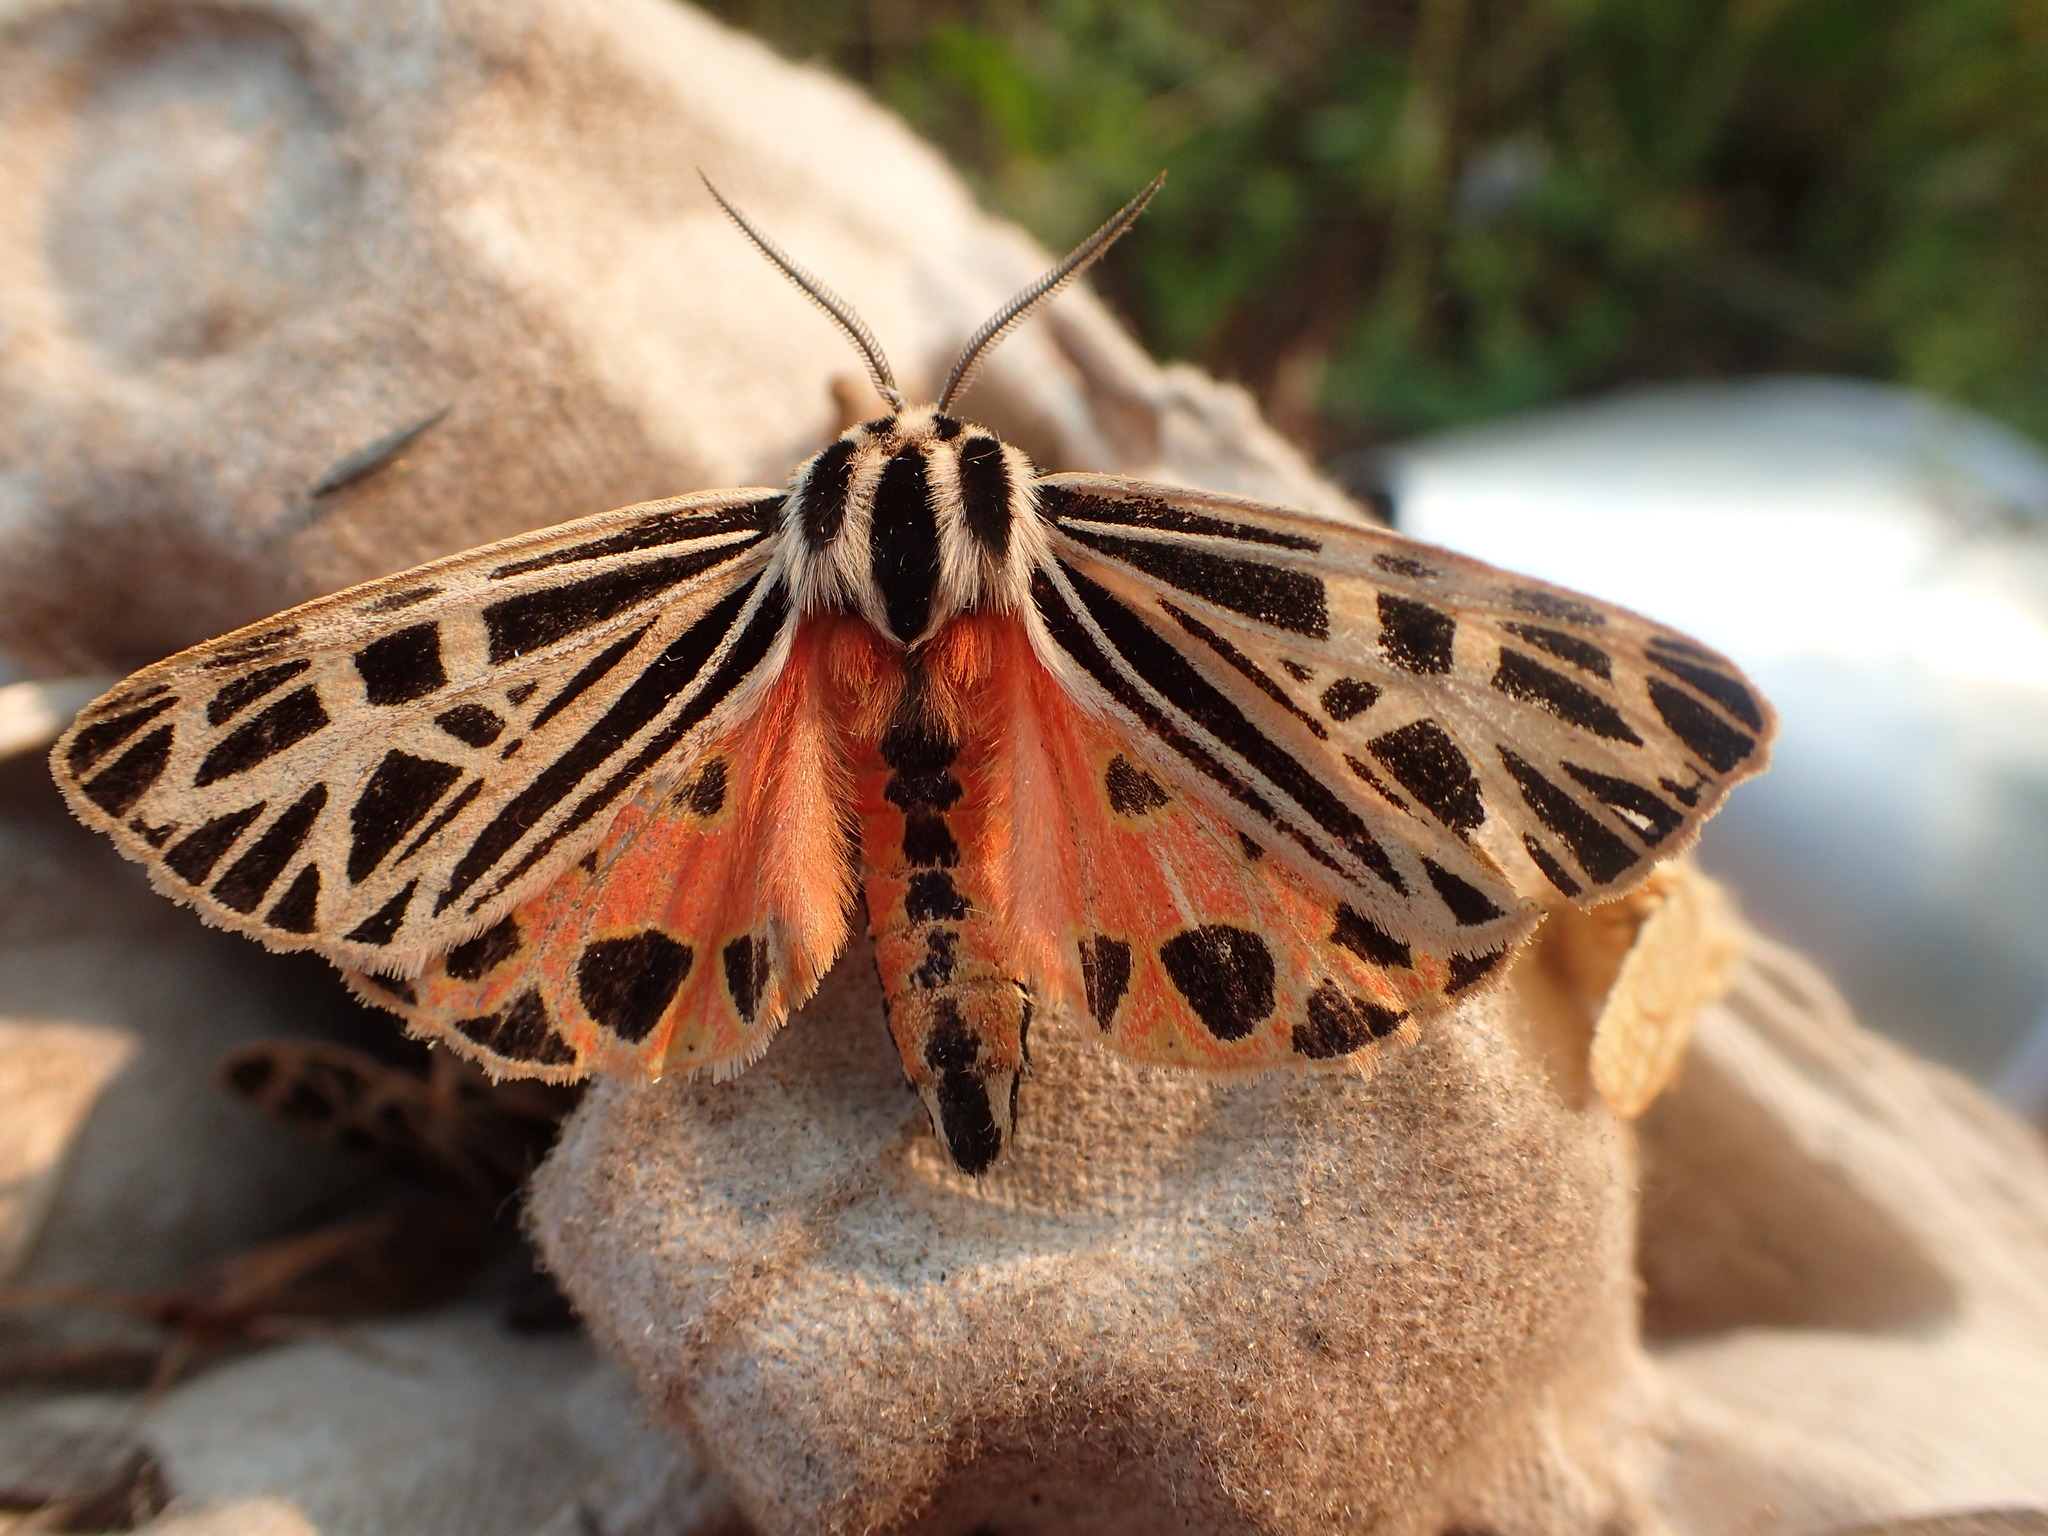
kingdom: Animalia
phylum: Arthropoda
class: Insecta
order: Lepidoptera
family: Erebidae
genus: Grammia
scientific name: Grammia virgo
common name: Virgin tiger moth
